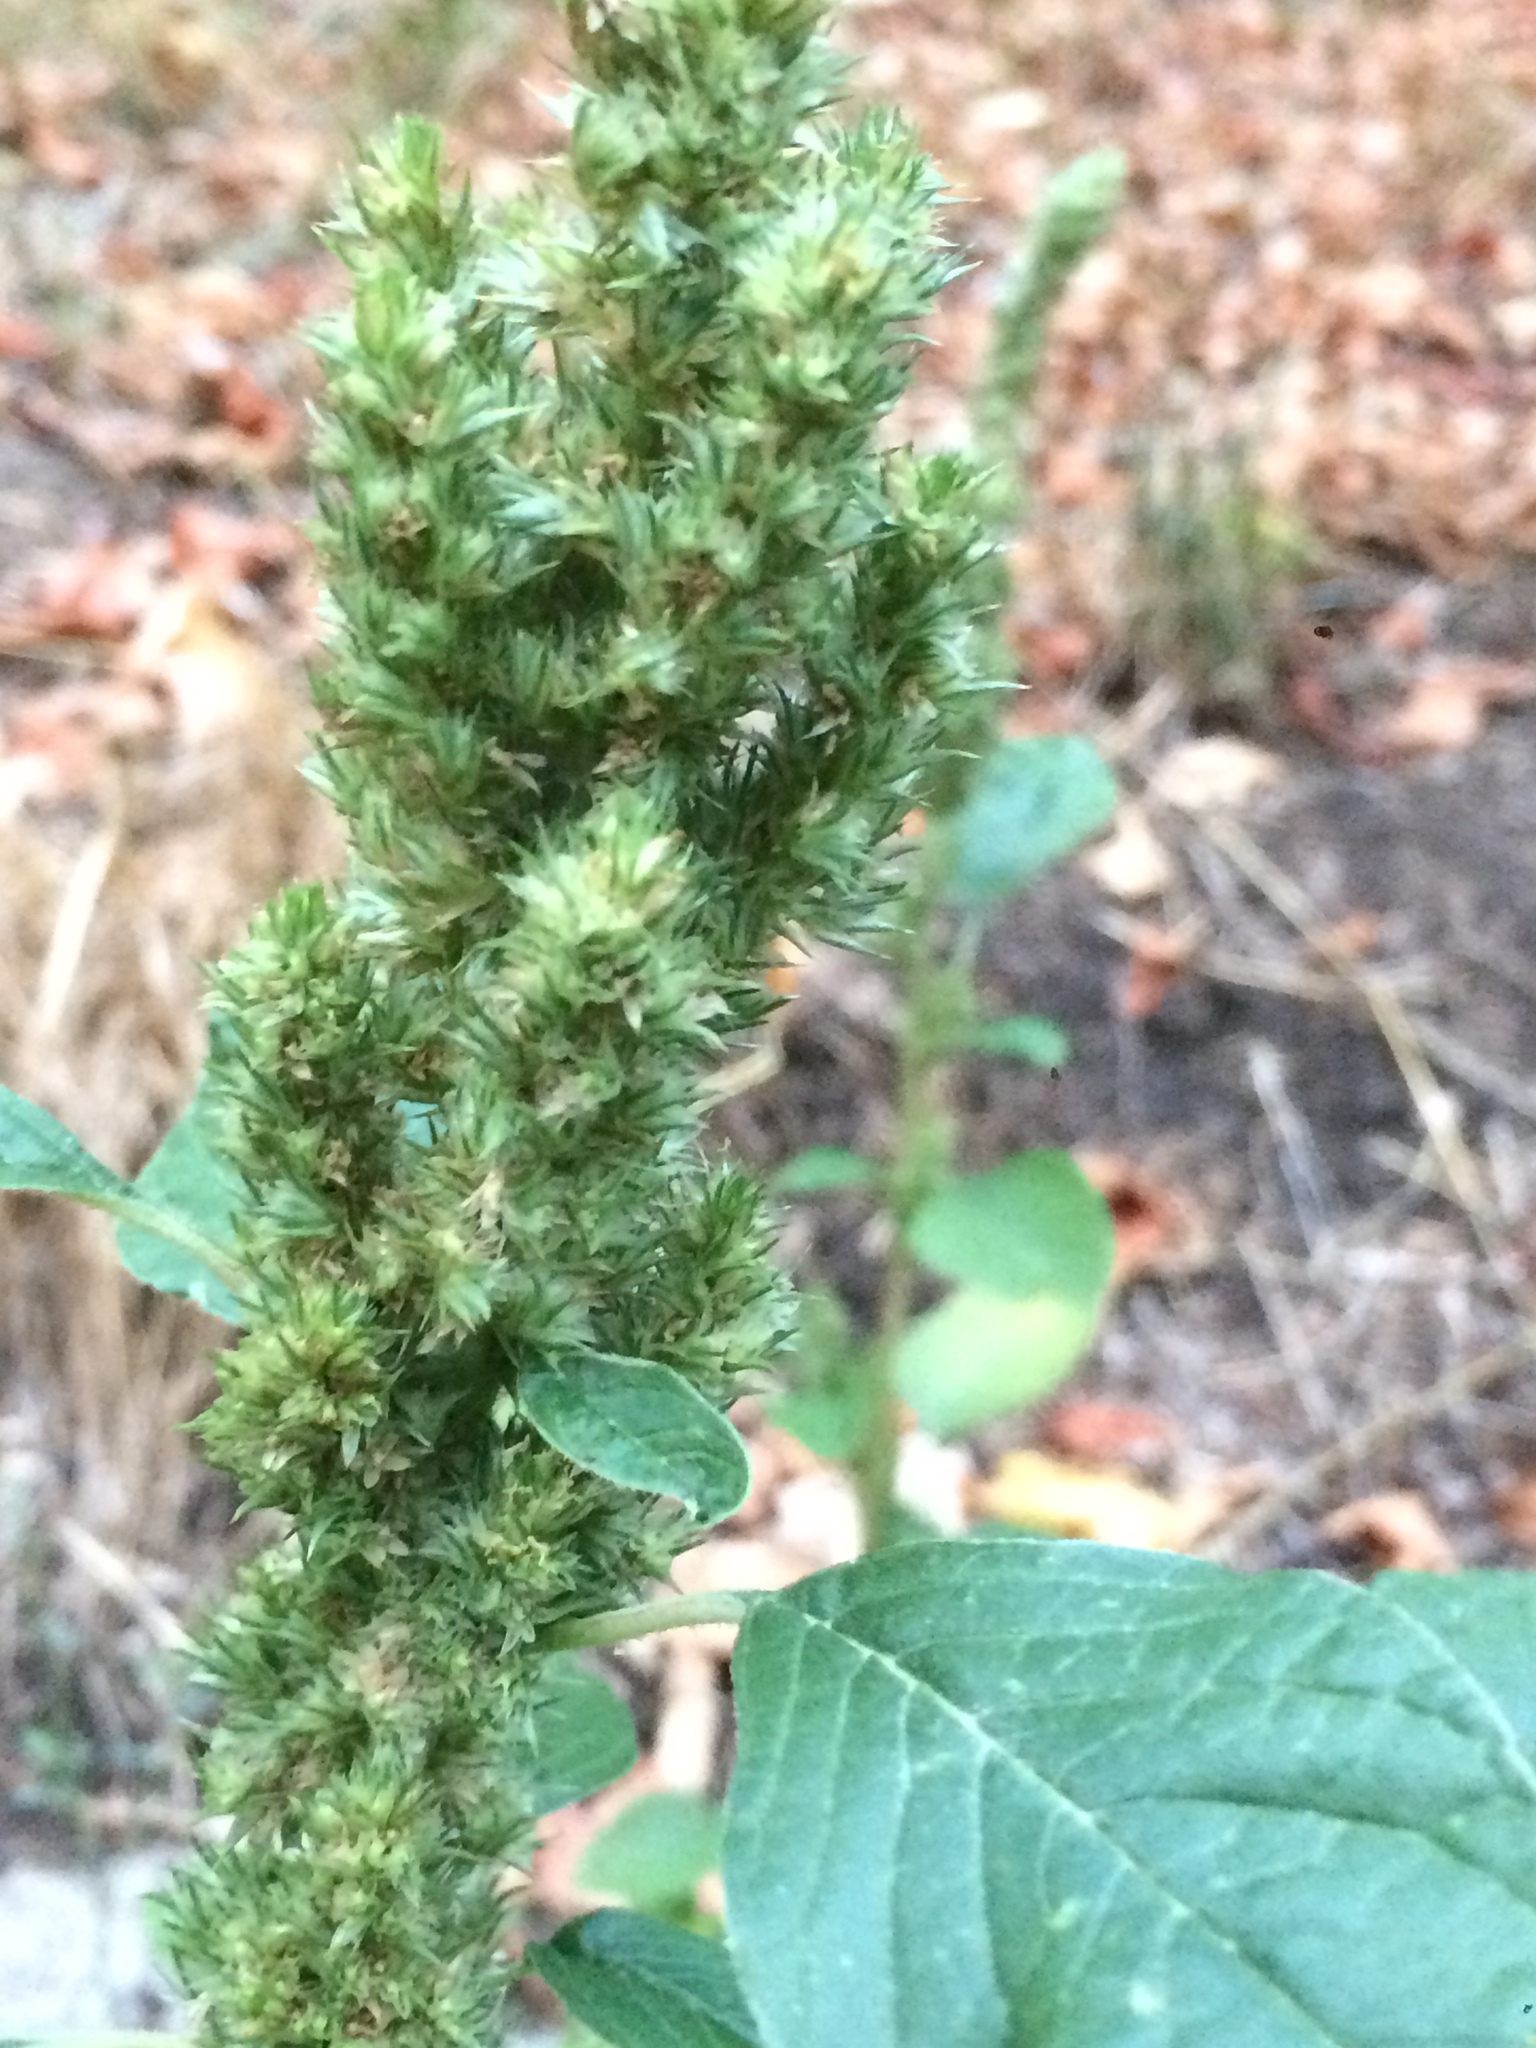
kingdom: Plantae
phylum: Tracheophyta
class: Magnoliopsida
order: Caryophyllales
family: Amaranthaceae
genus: Amaranthus
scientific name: Amaranthus retroflexus
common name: Redroot amaranth
